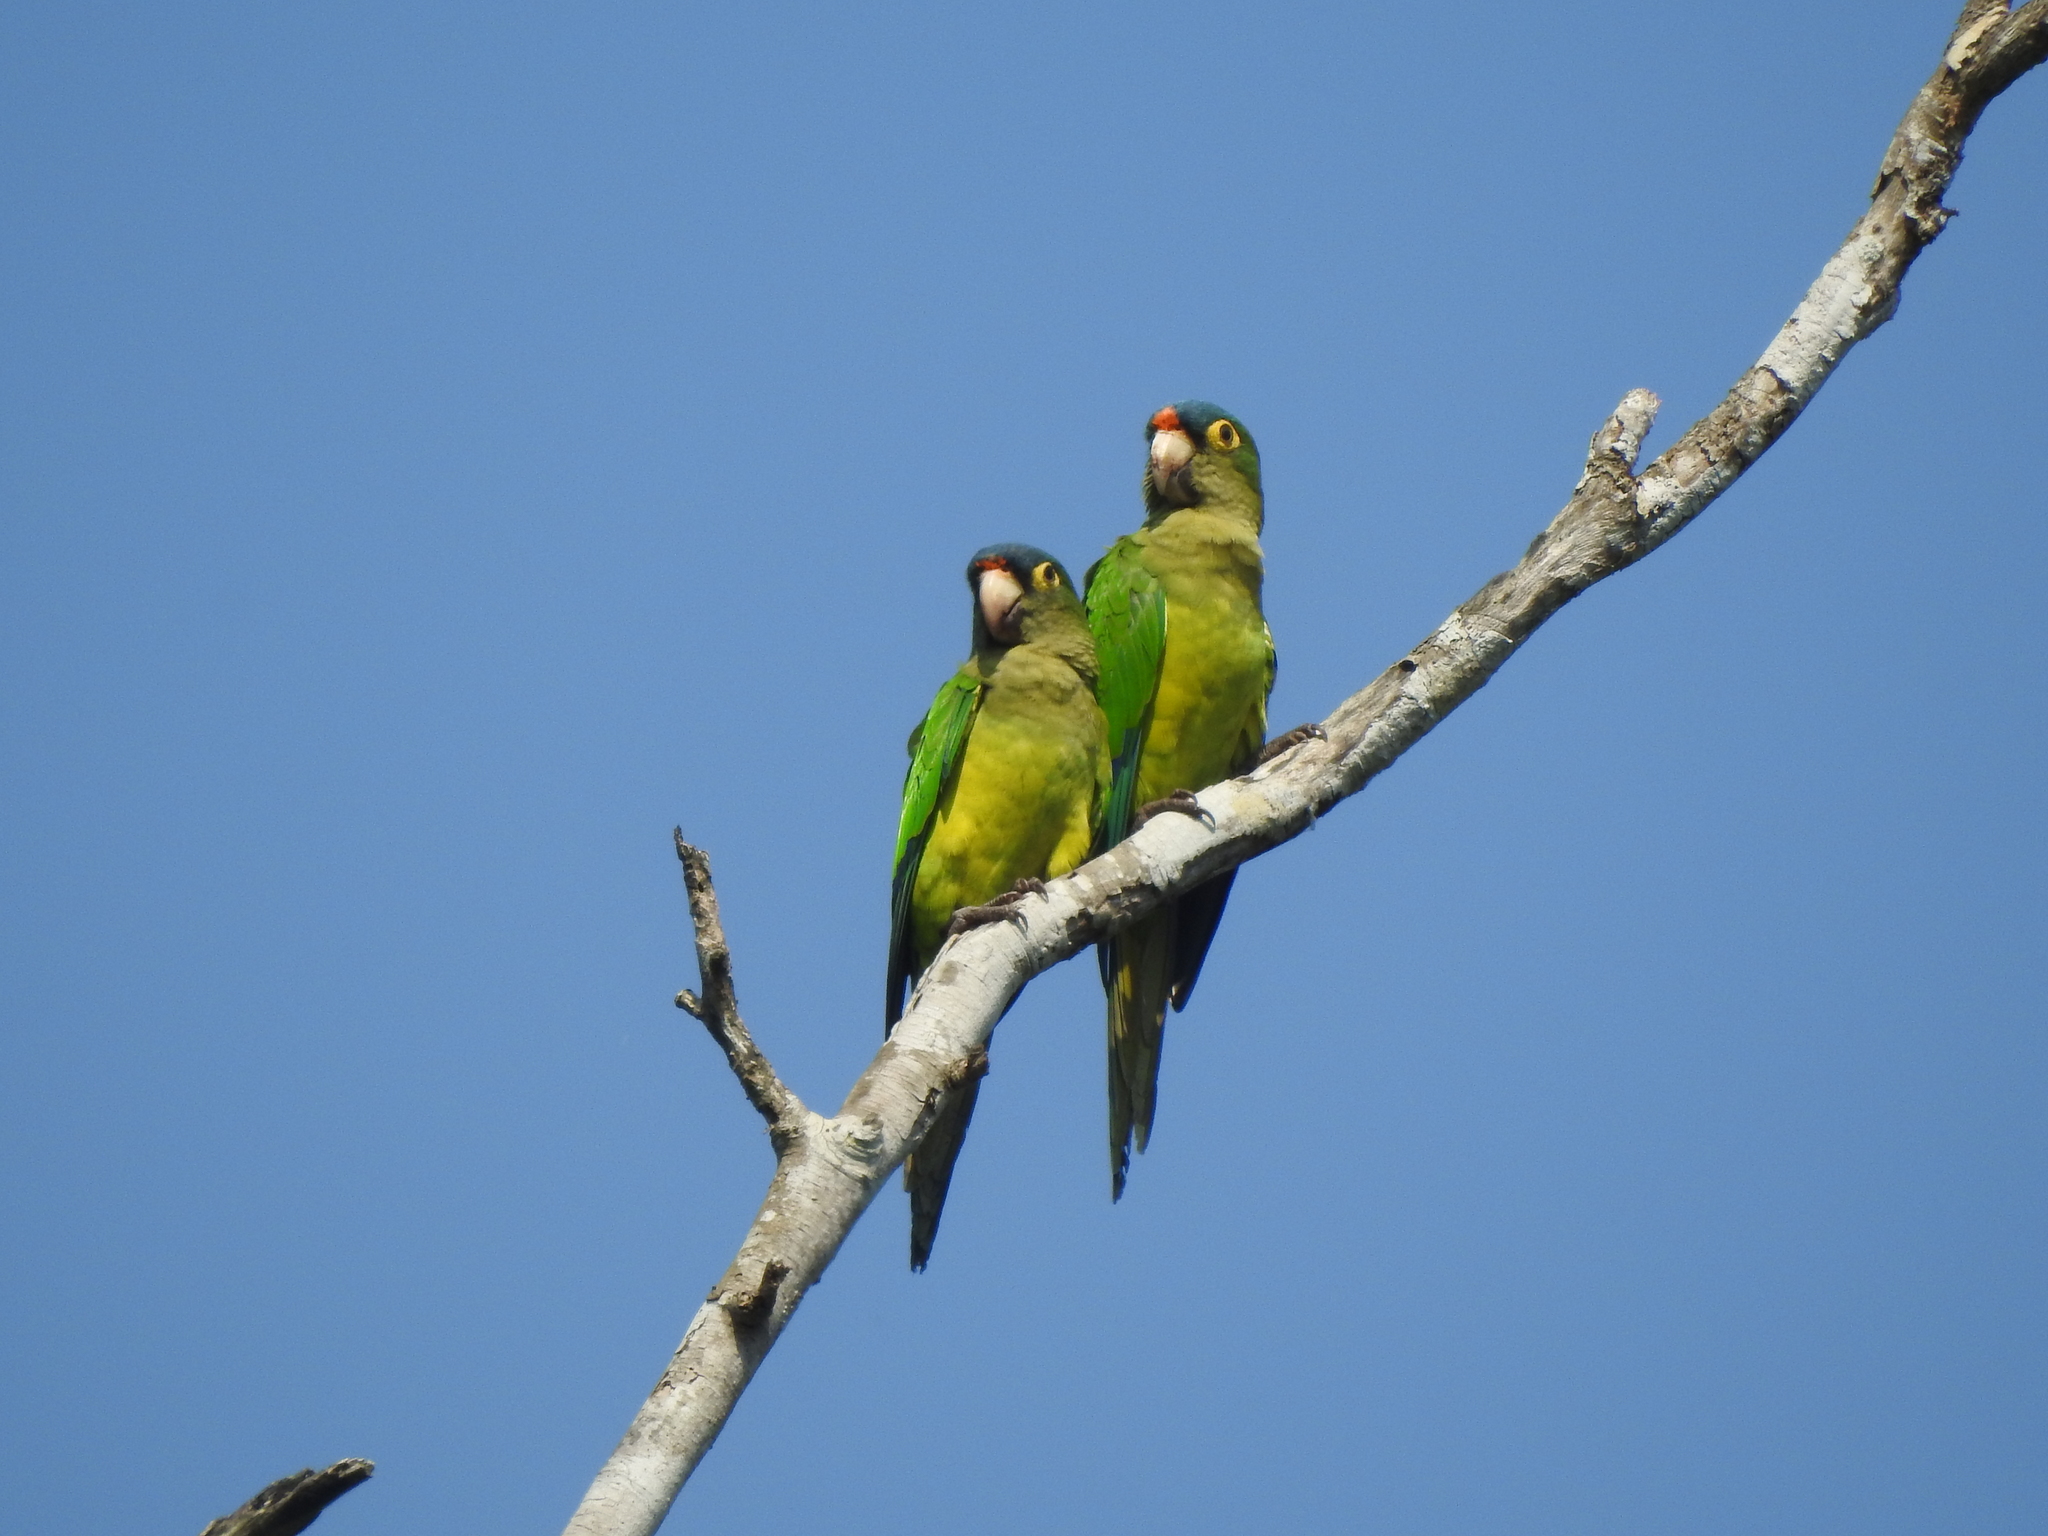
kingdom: Animalia
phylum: Chordata
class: Aves
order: Psittaciformes
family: Psittacidae
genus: Aratinga
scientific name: Aratinga canicularis
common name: Orange-fronted parakeet
